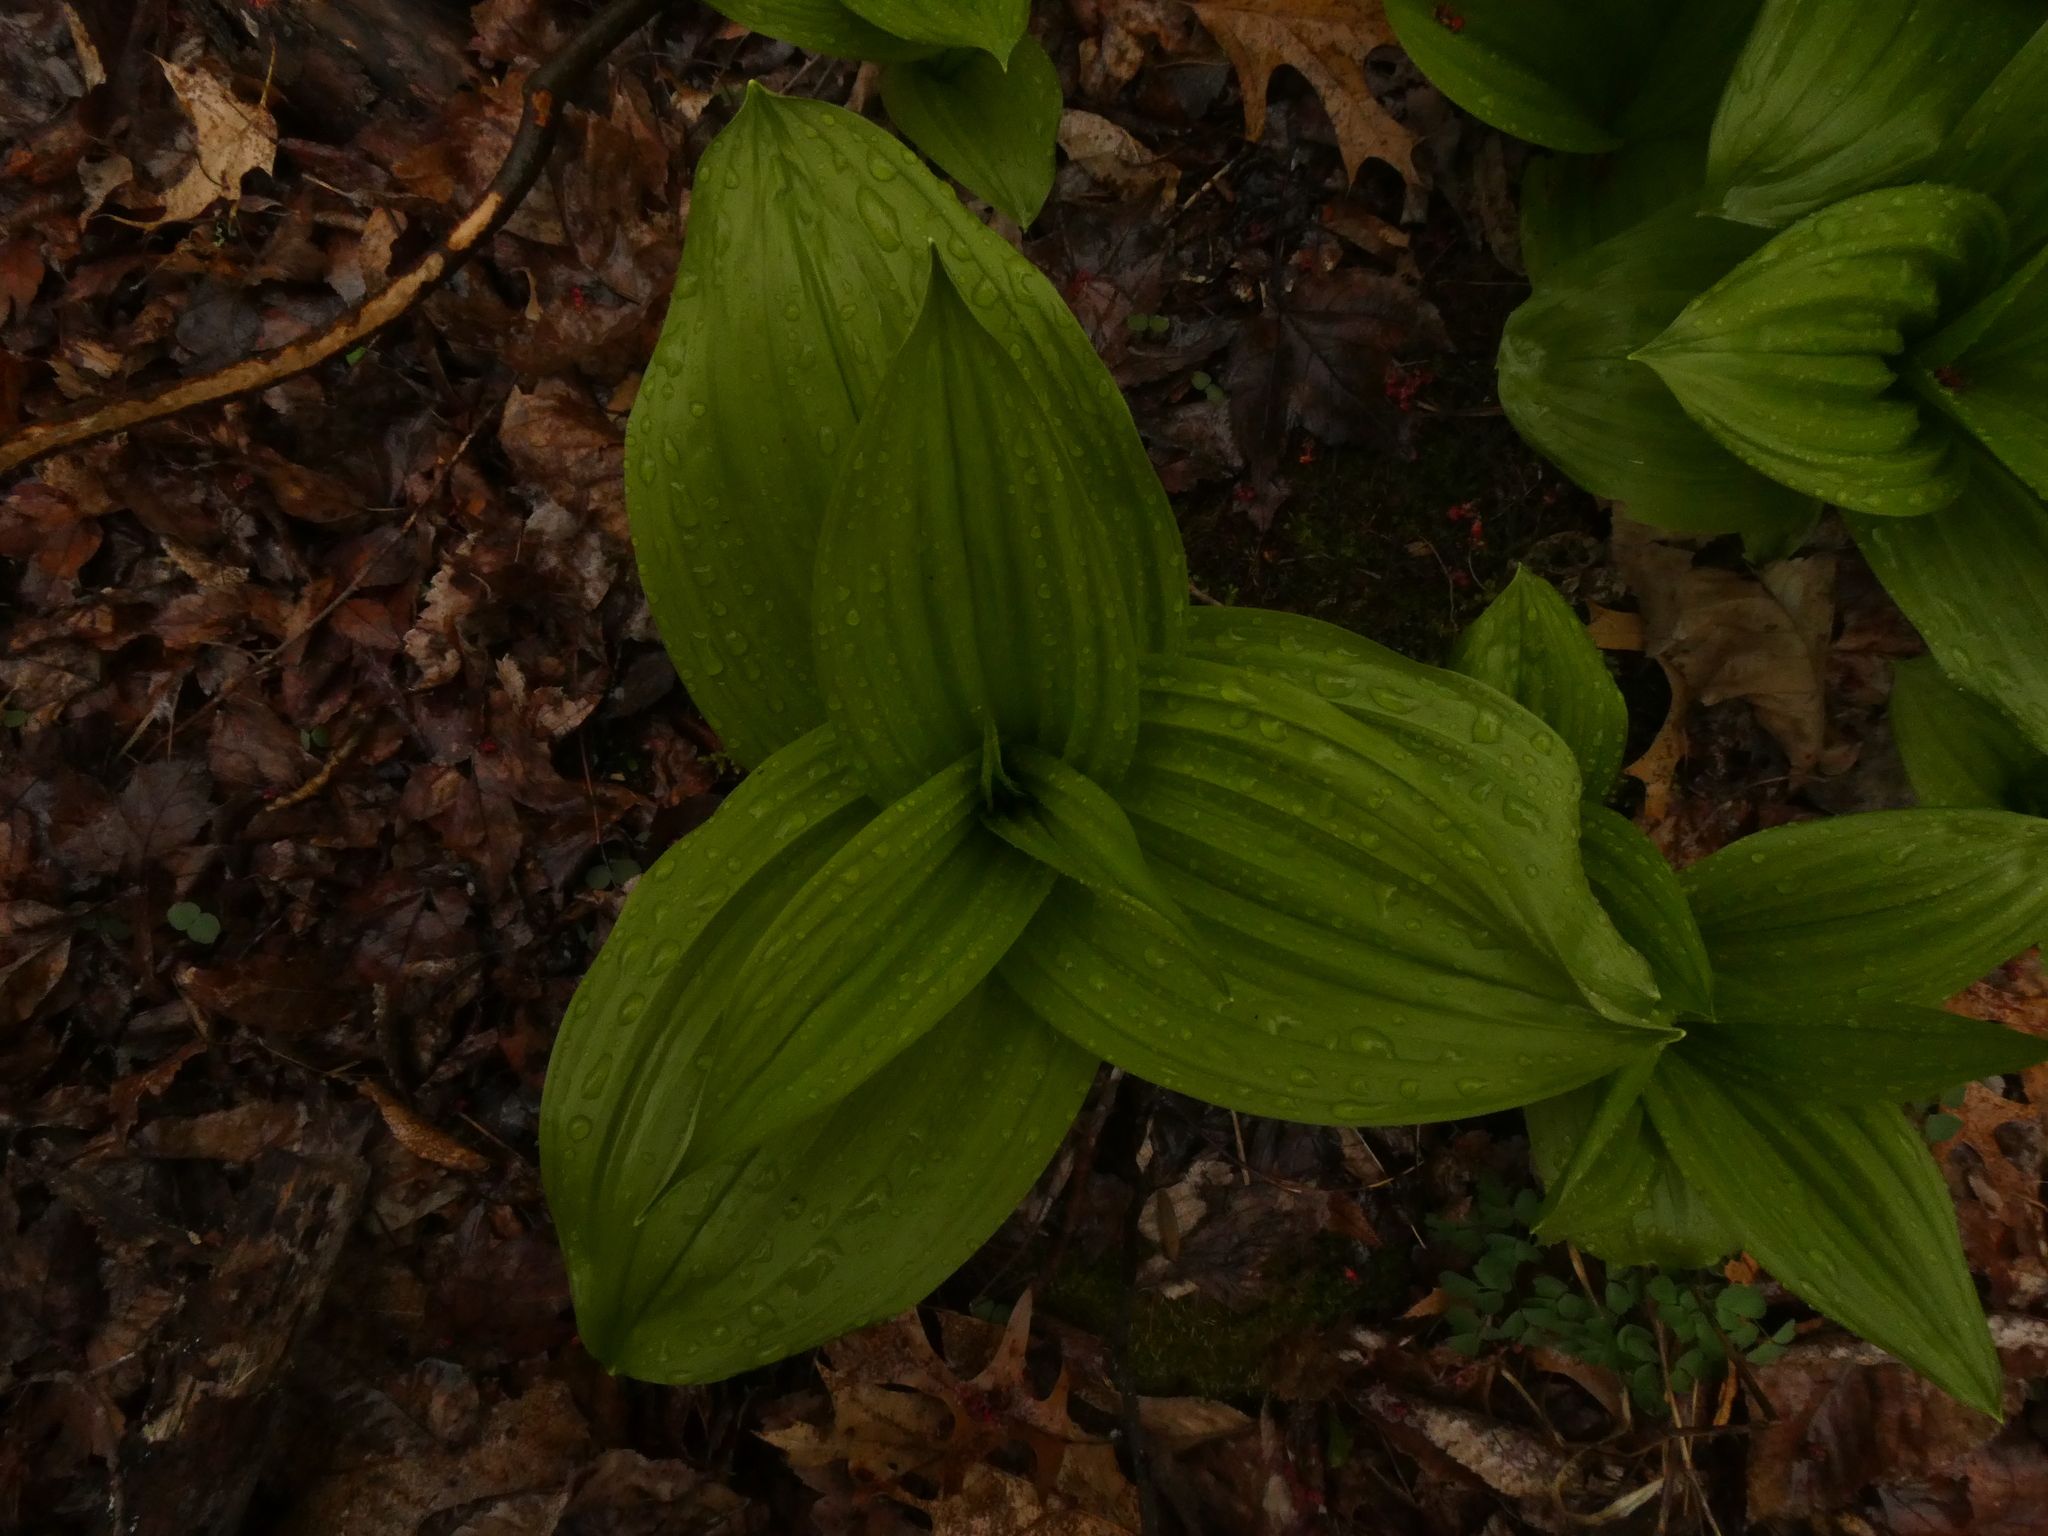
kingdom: Plantae
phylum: Tracheophyta
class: Liliopsida
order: Liliales
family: Melanthiaceae
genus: Veratrum
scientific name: Veratrum viride
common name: American false hellebore
